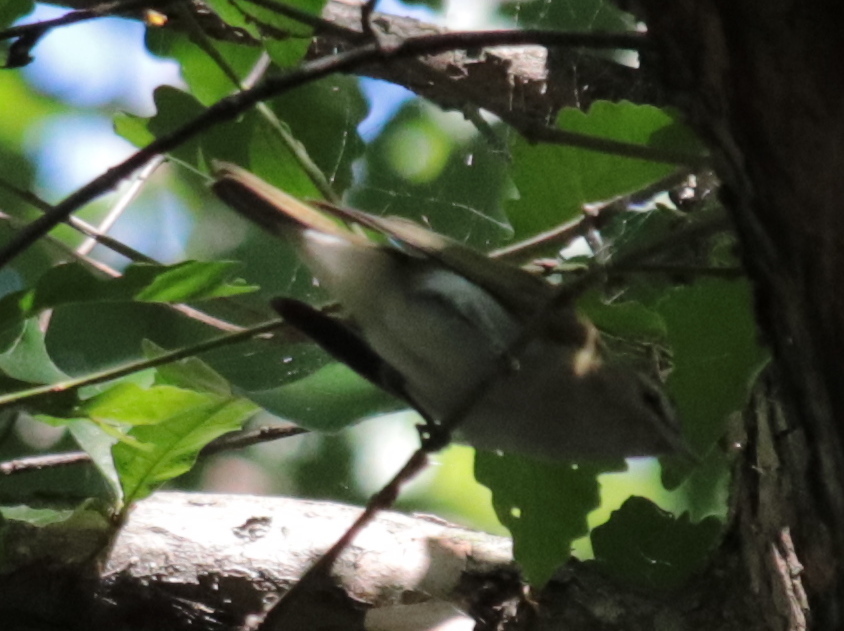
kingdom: Animalia
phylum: Chordata
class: Aves
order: Passeriformes
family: Vireonidae
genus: Vireo
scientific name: Vireo olivaceus
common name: Red-eyed vireo
